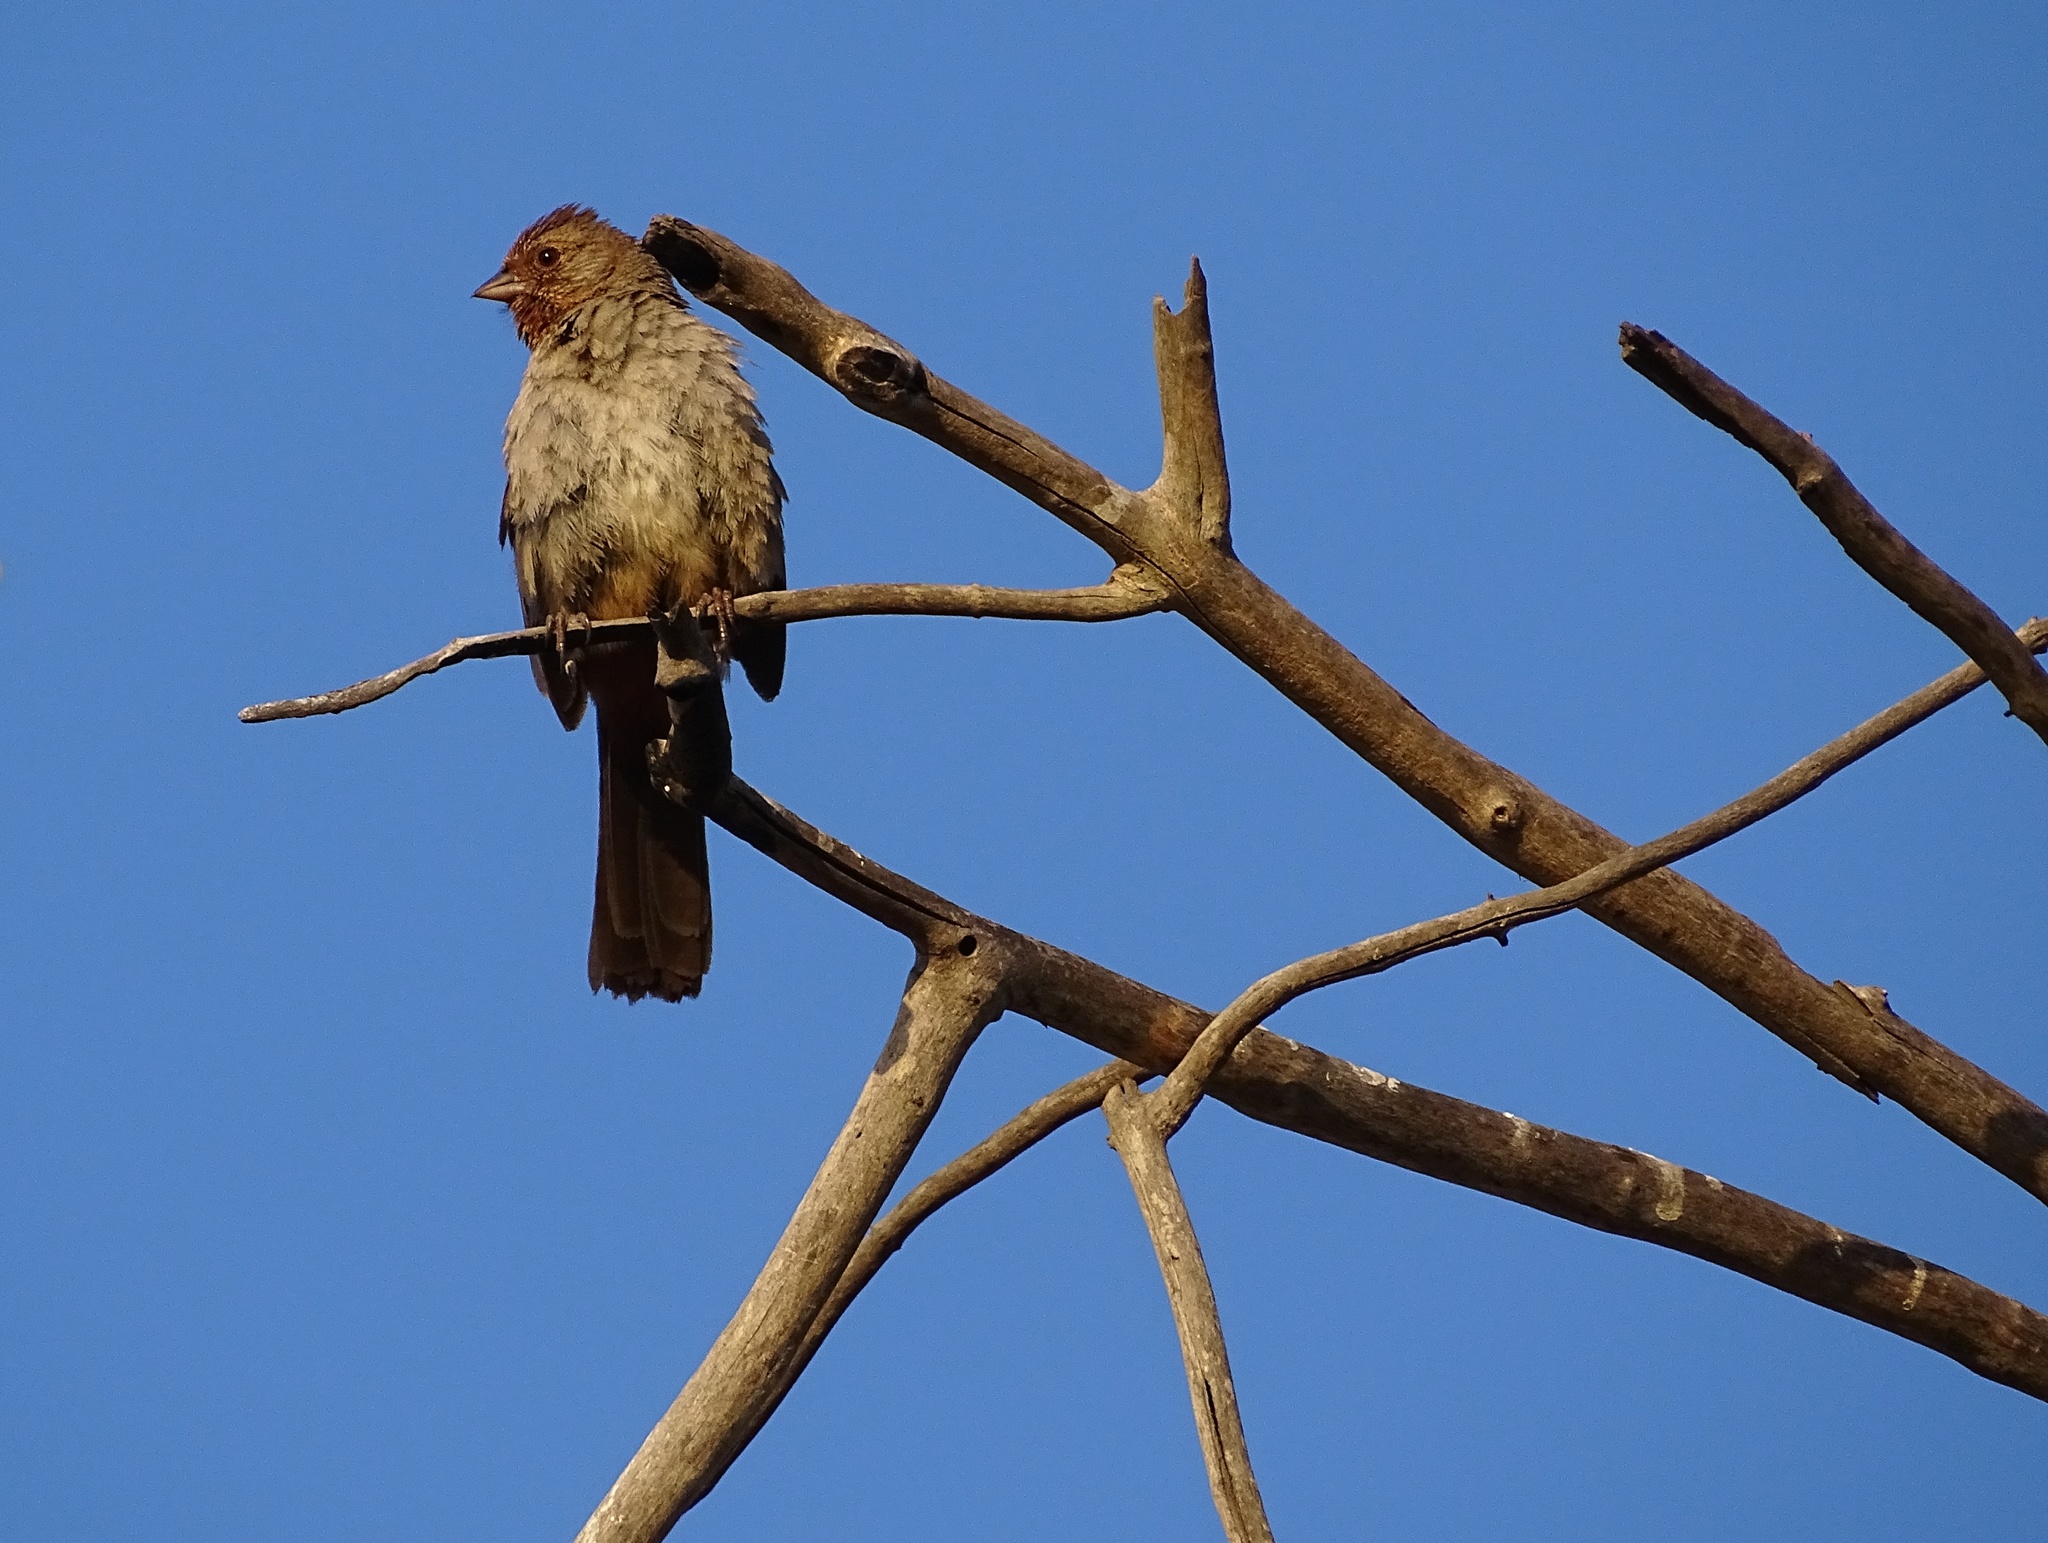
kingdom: Animalia
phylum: Chordata
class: Aves
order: Passeriformes
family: Passerellidae
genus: Melozone
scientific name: Melozone crissalis
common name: California towhee
